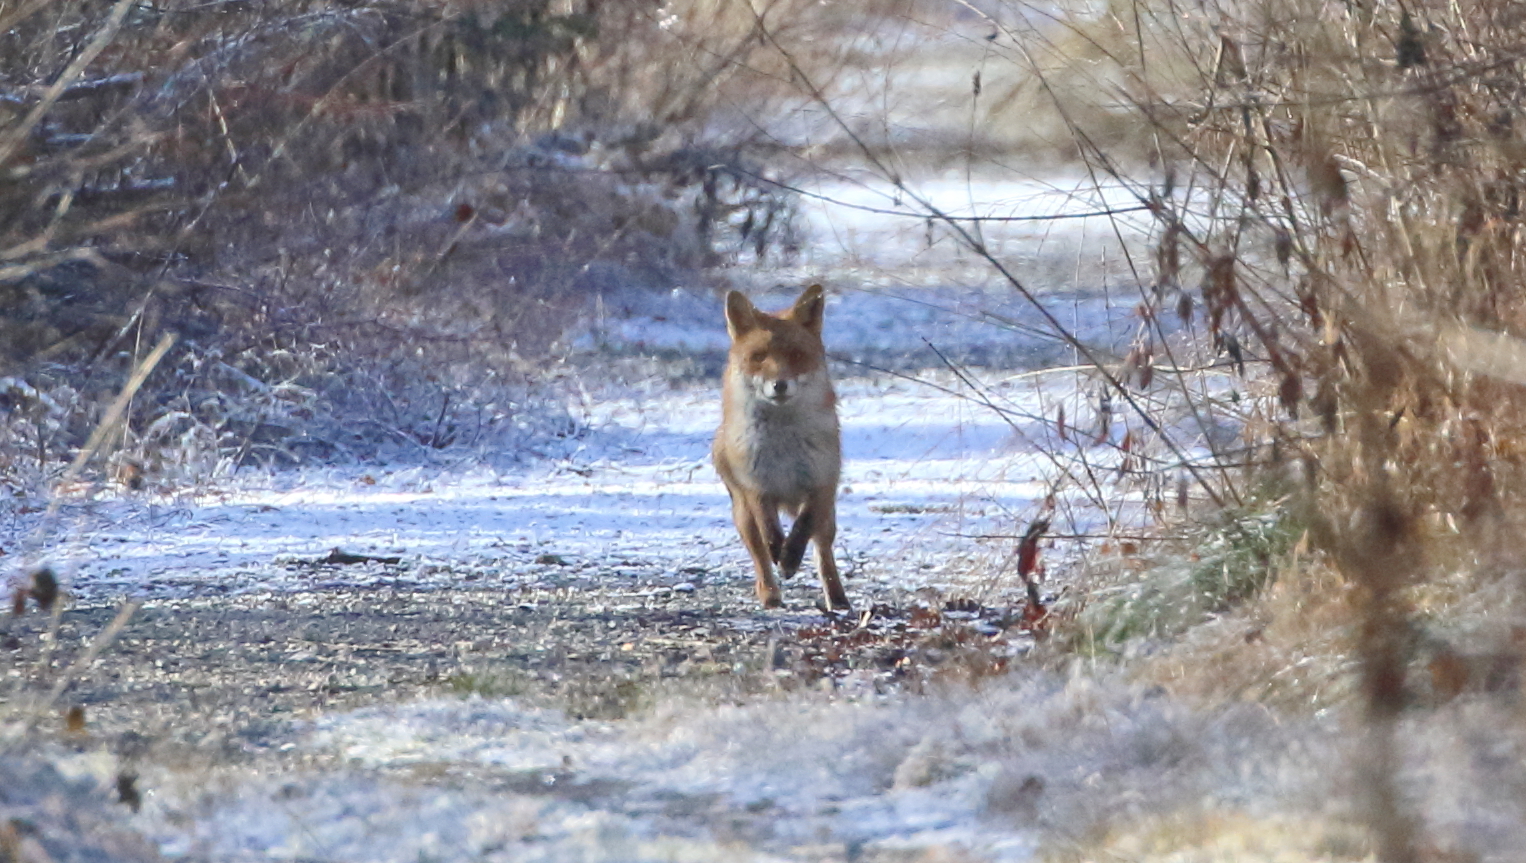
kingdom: Animalia
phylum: Chordata
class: Mammalia
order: Carnivora
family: Canidae
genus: Vulpes
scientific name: Vulpes vulpes
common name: Red fox
